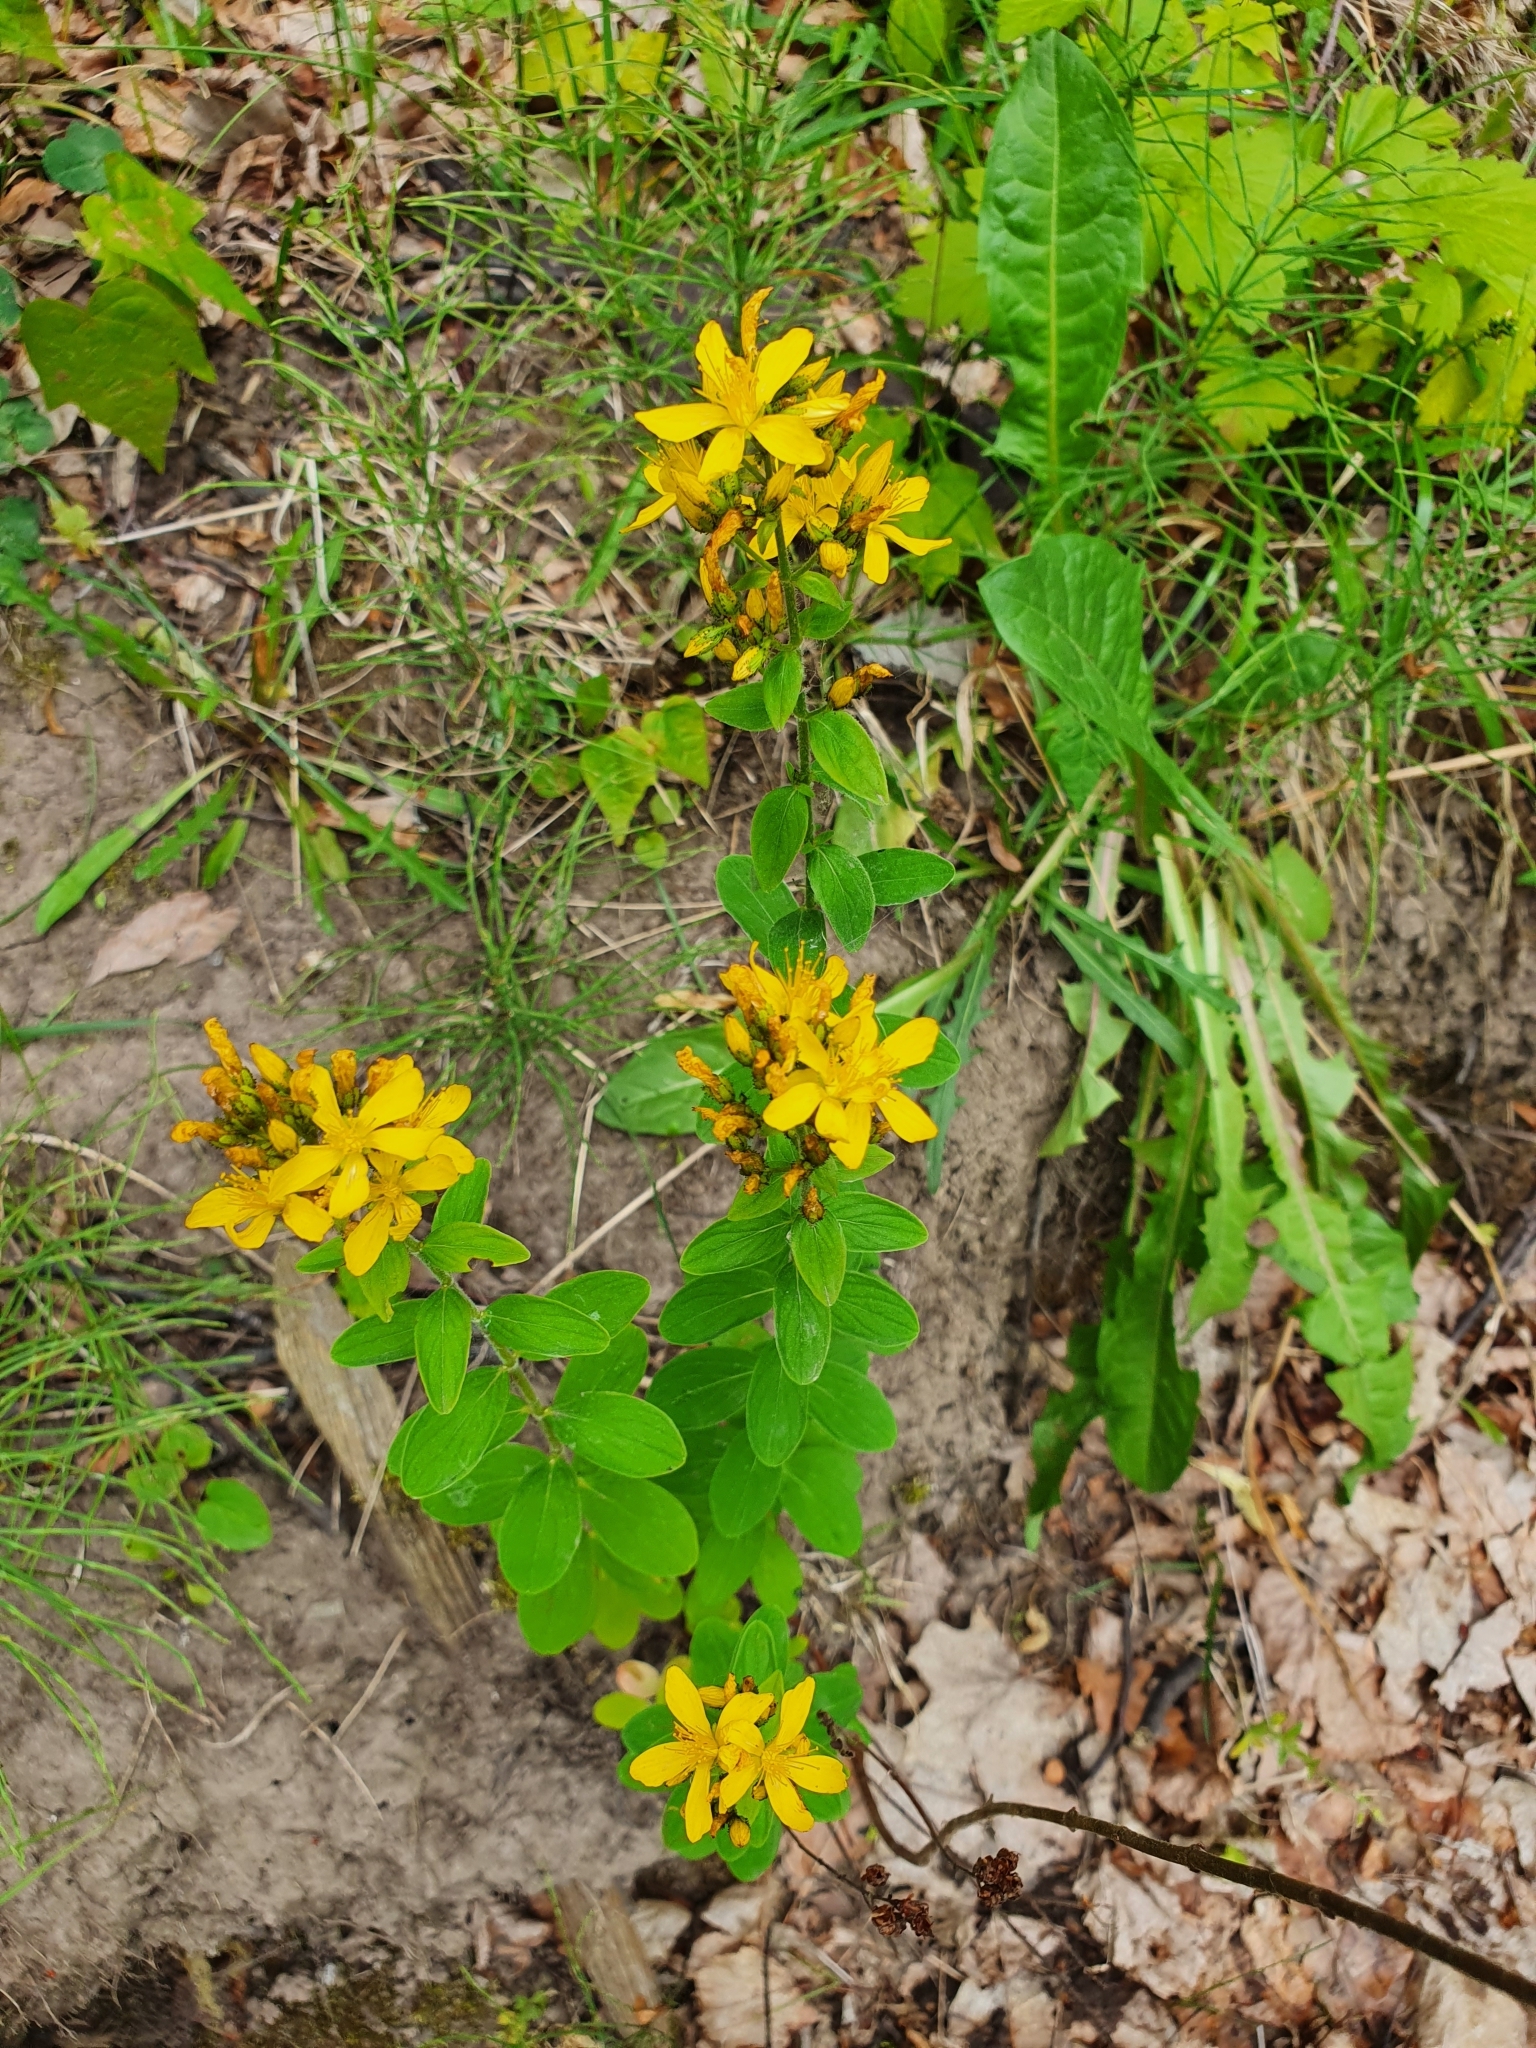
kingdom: Plantae
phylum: Tracheophyta
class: Magnoliopsida
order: Malpighiales
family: Hypericaceae
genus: Hypericum
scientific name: Hypericum hirsutum
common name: Hairy st. john's-wort
